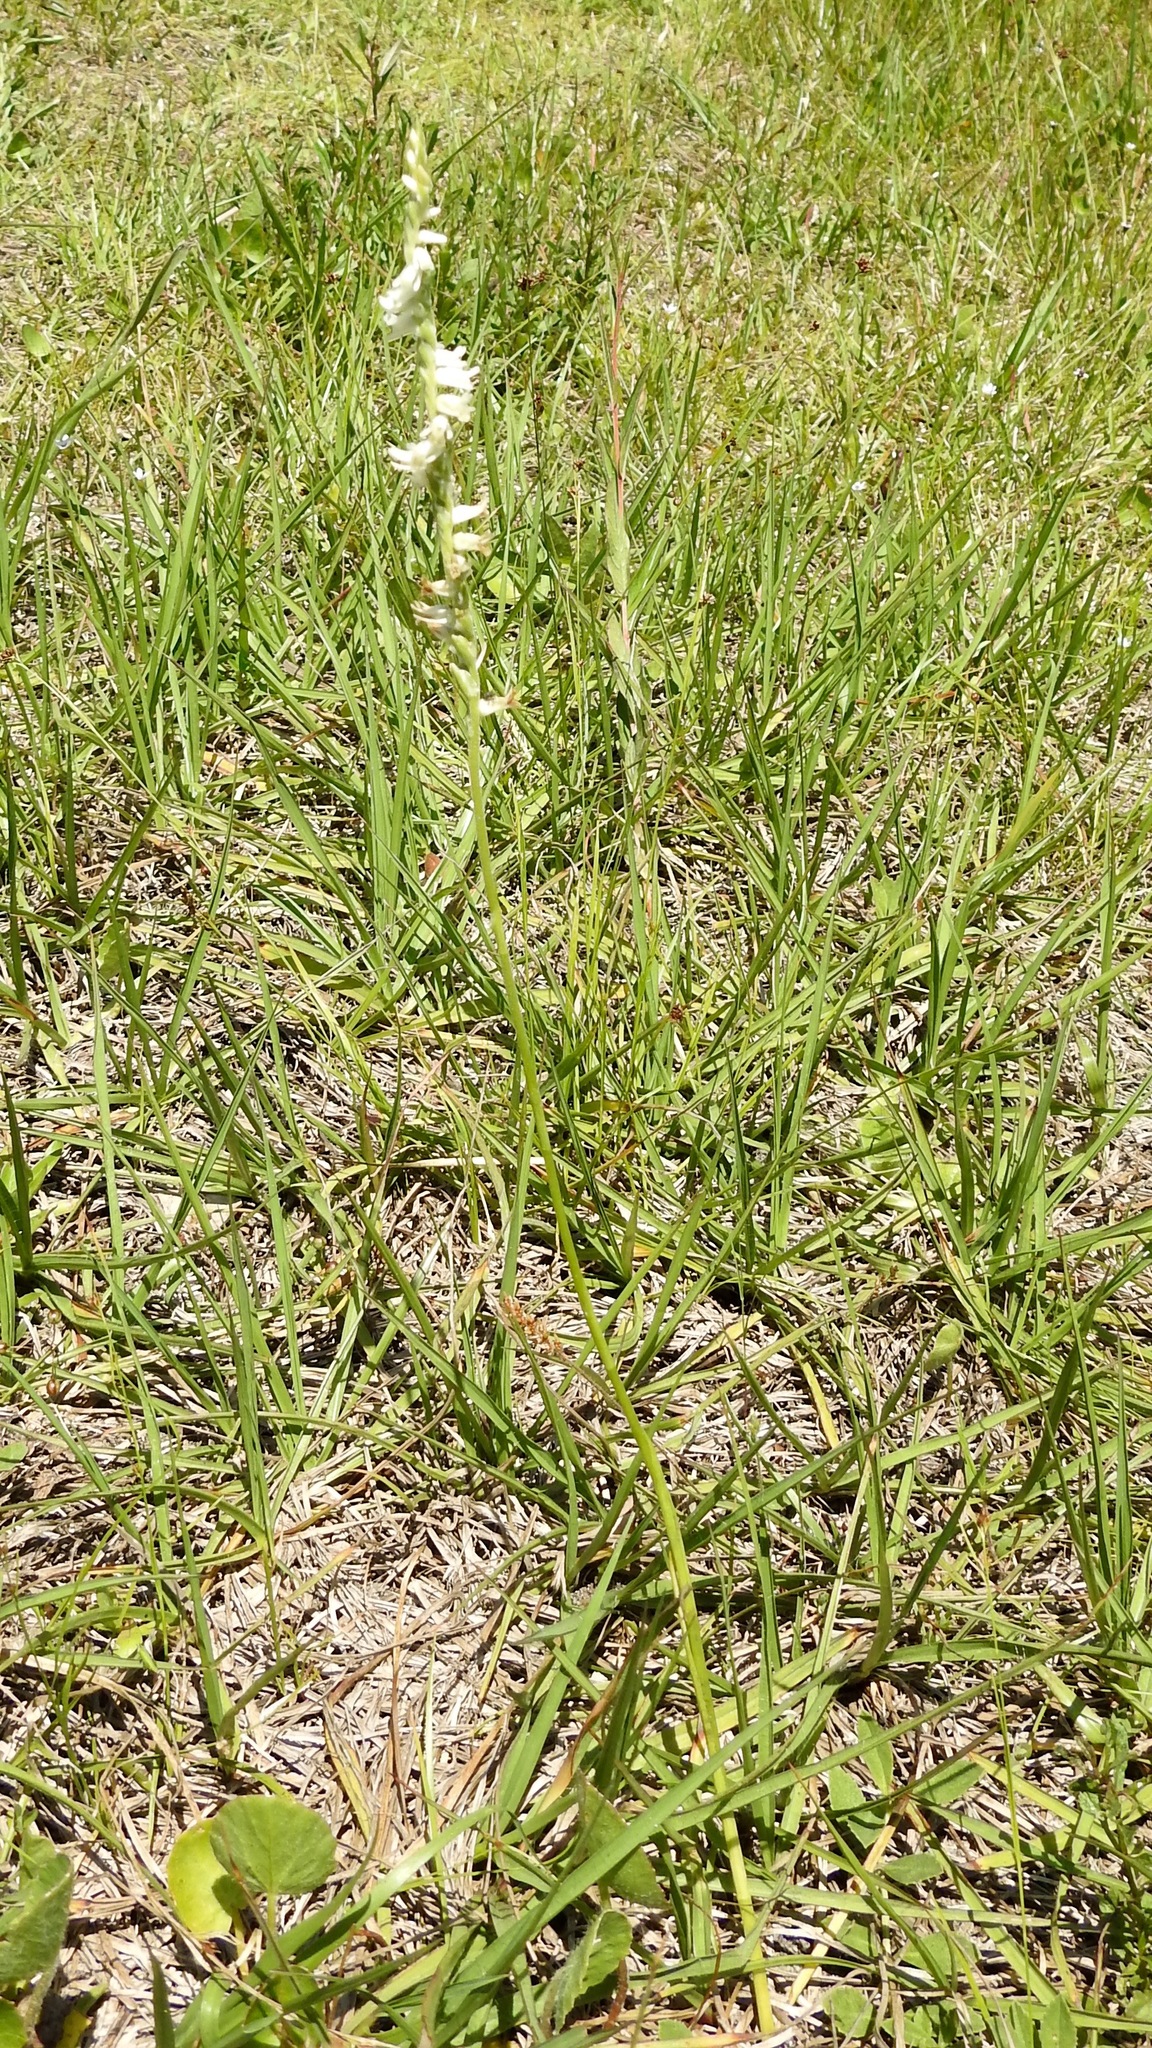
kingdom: Plantae
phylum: Tracheophyta
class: Liliopsida
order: Asparagales
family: Orchidaceae
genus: Spiranthes
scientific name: Spiranthes vernalis
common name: Spring ladies'-tresses
